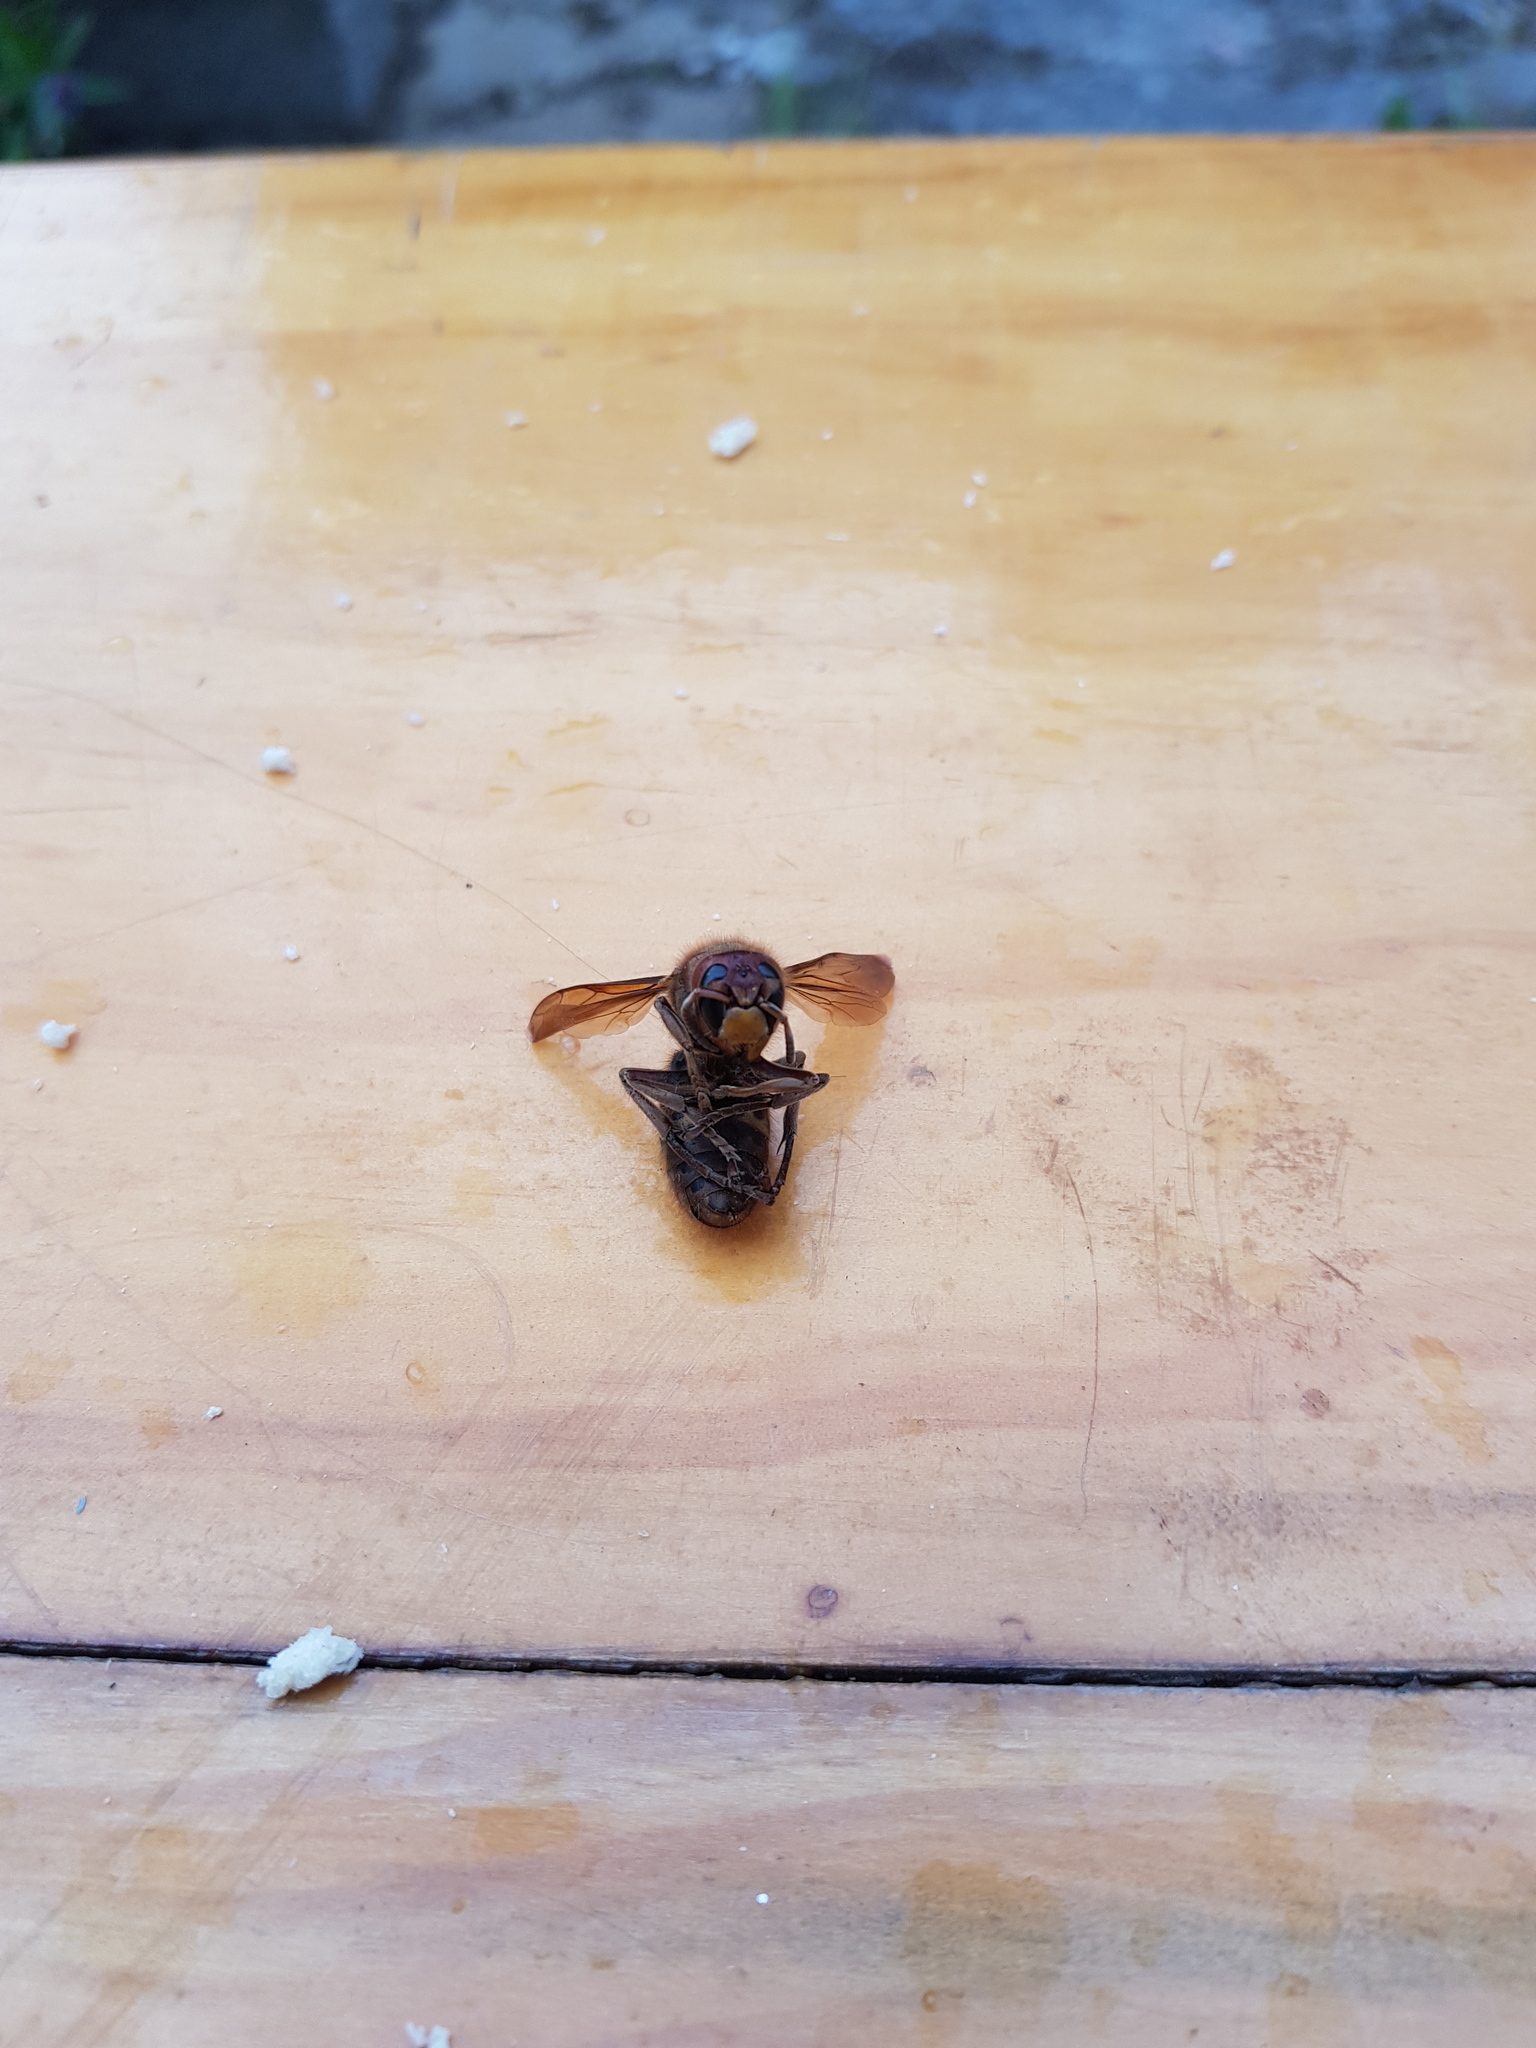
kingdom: Animalia
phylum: Arthropoda
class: Insecta
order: Hymenoptera
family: Vespidae
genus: Vespa
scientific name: Vespa crabro
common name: Hornet
